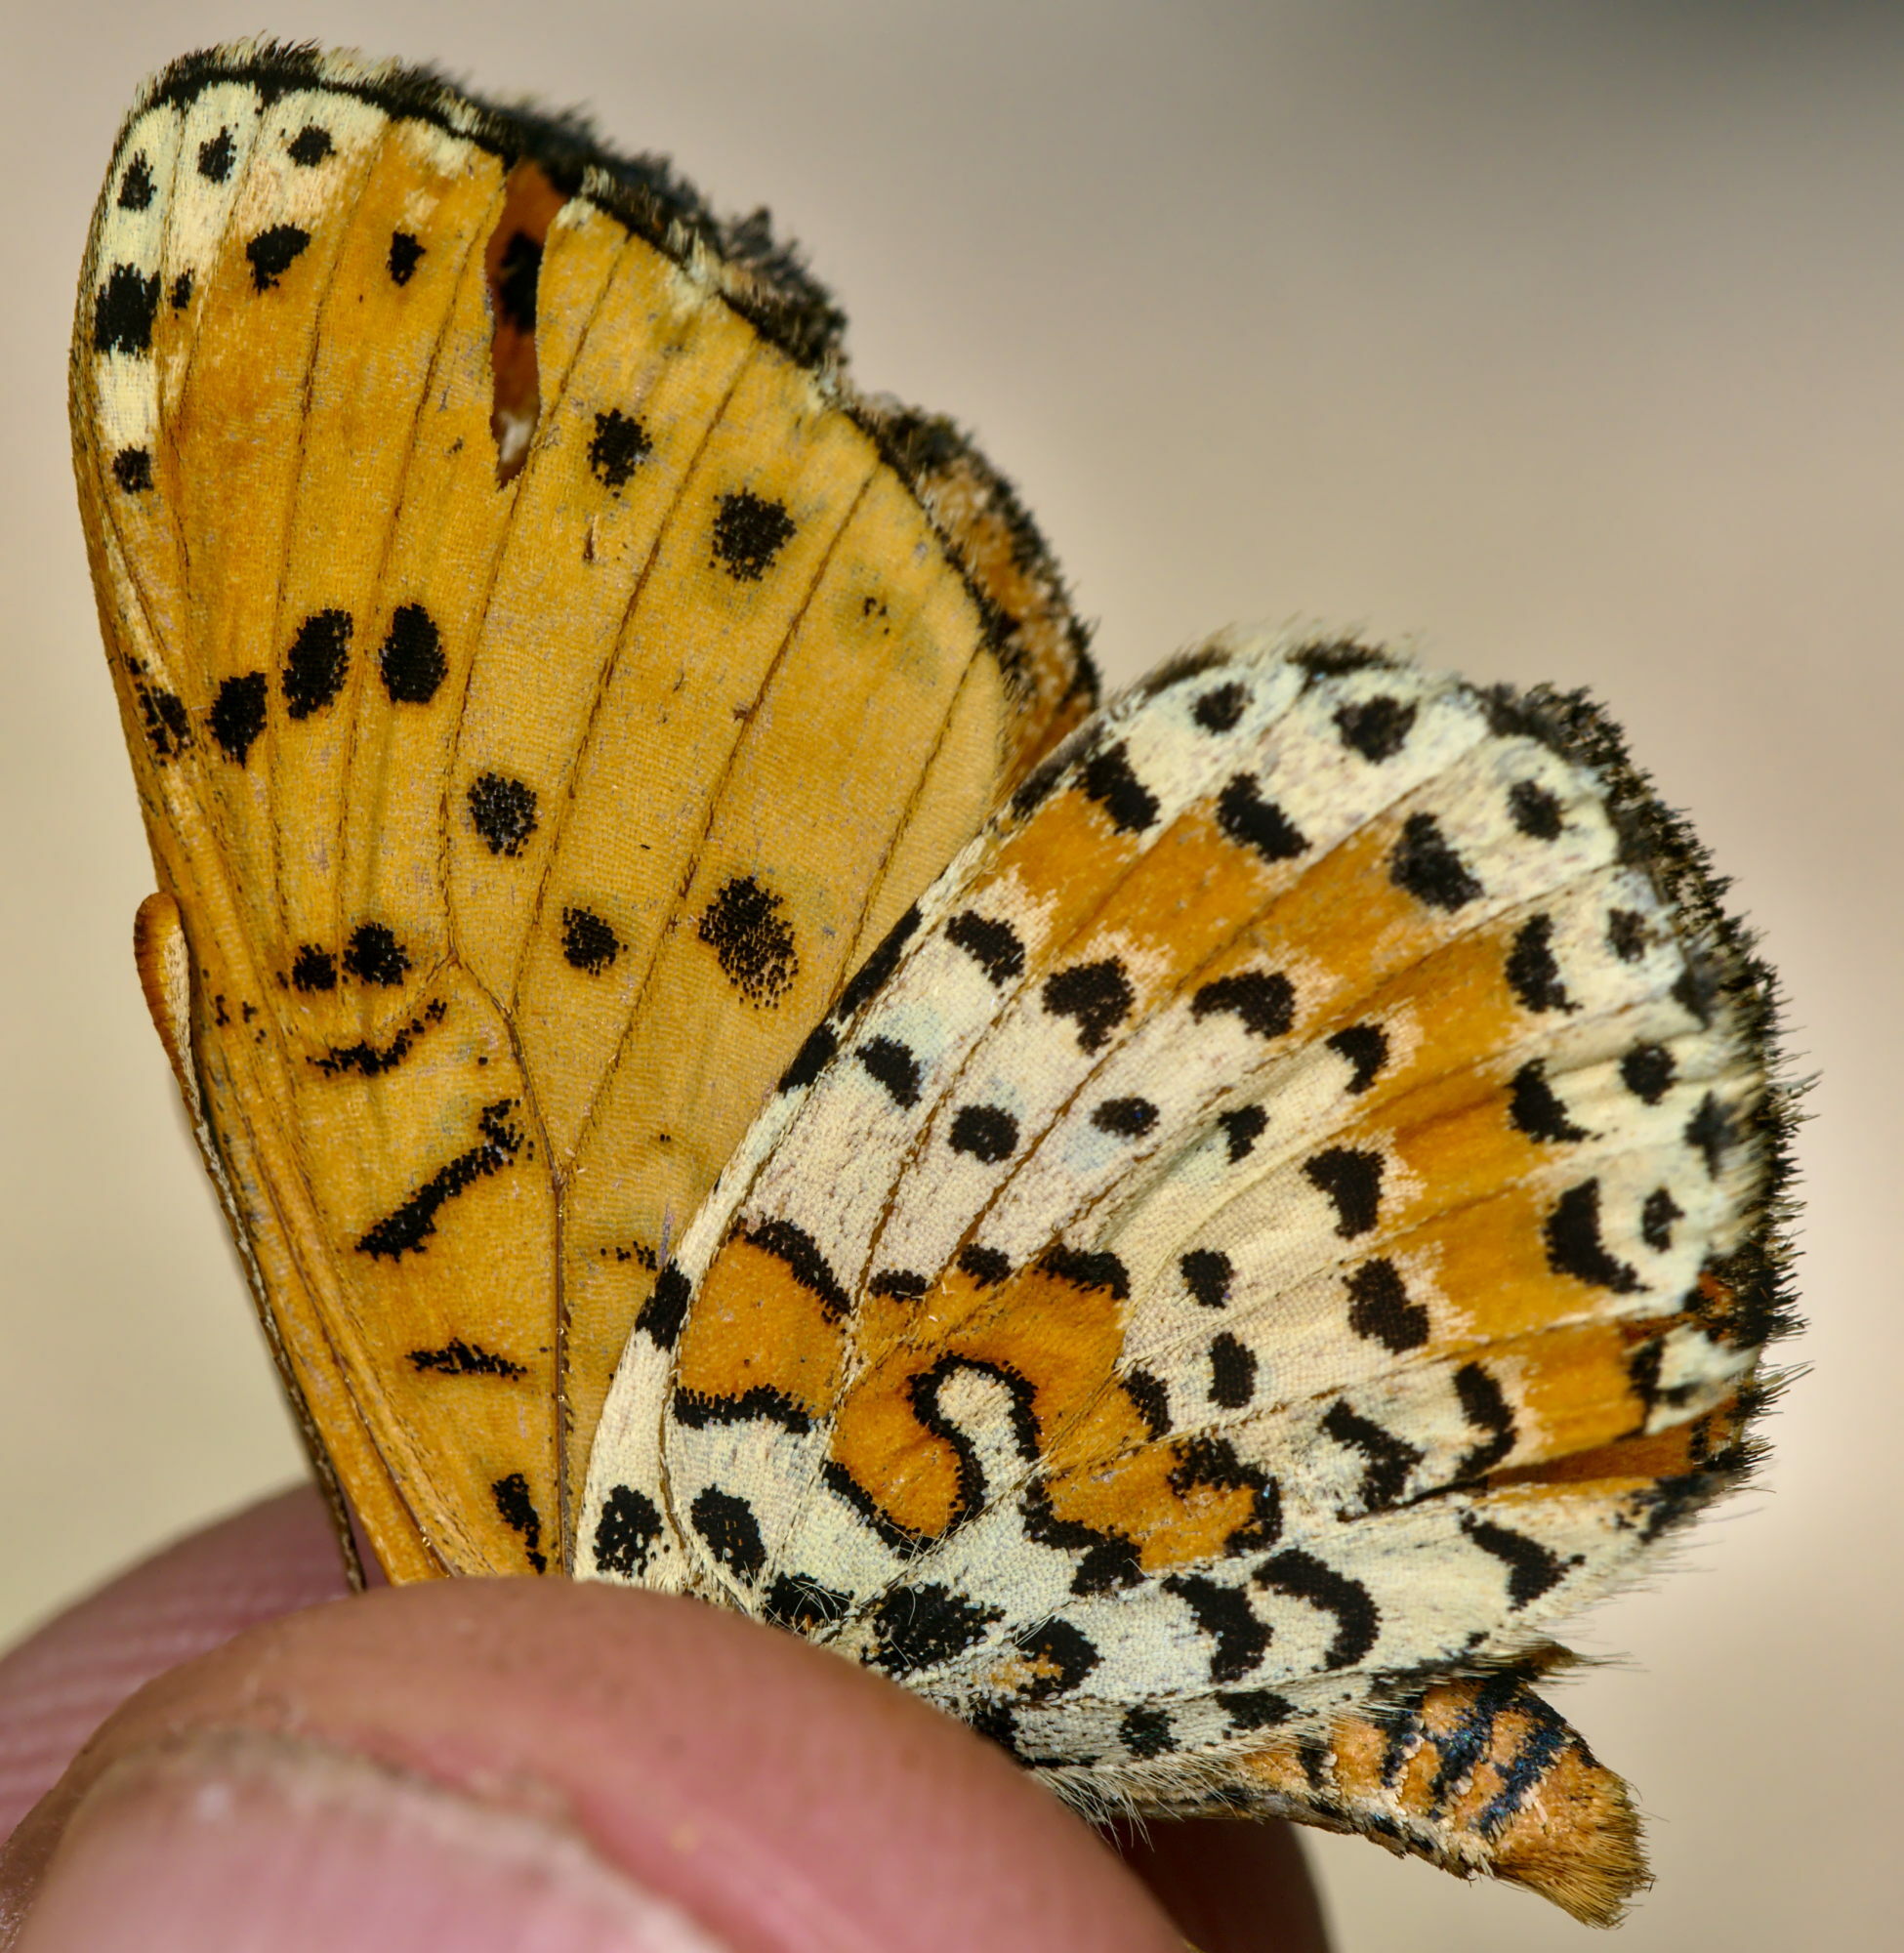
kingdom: Animalia
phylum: Arthropoda
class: Insecta
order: Lepidoptera
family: Nymphalidae
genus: Melitaea
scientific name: Melitaea didyma
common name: Spotted fritillary
